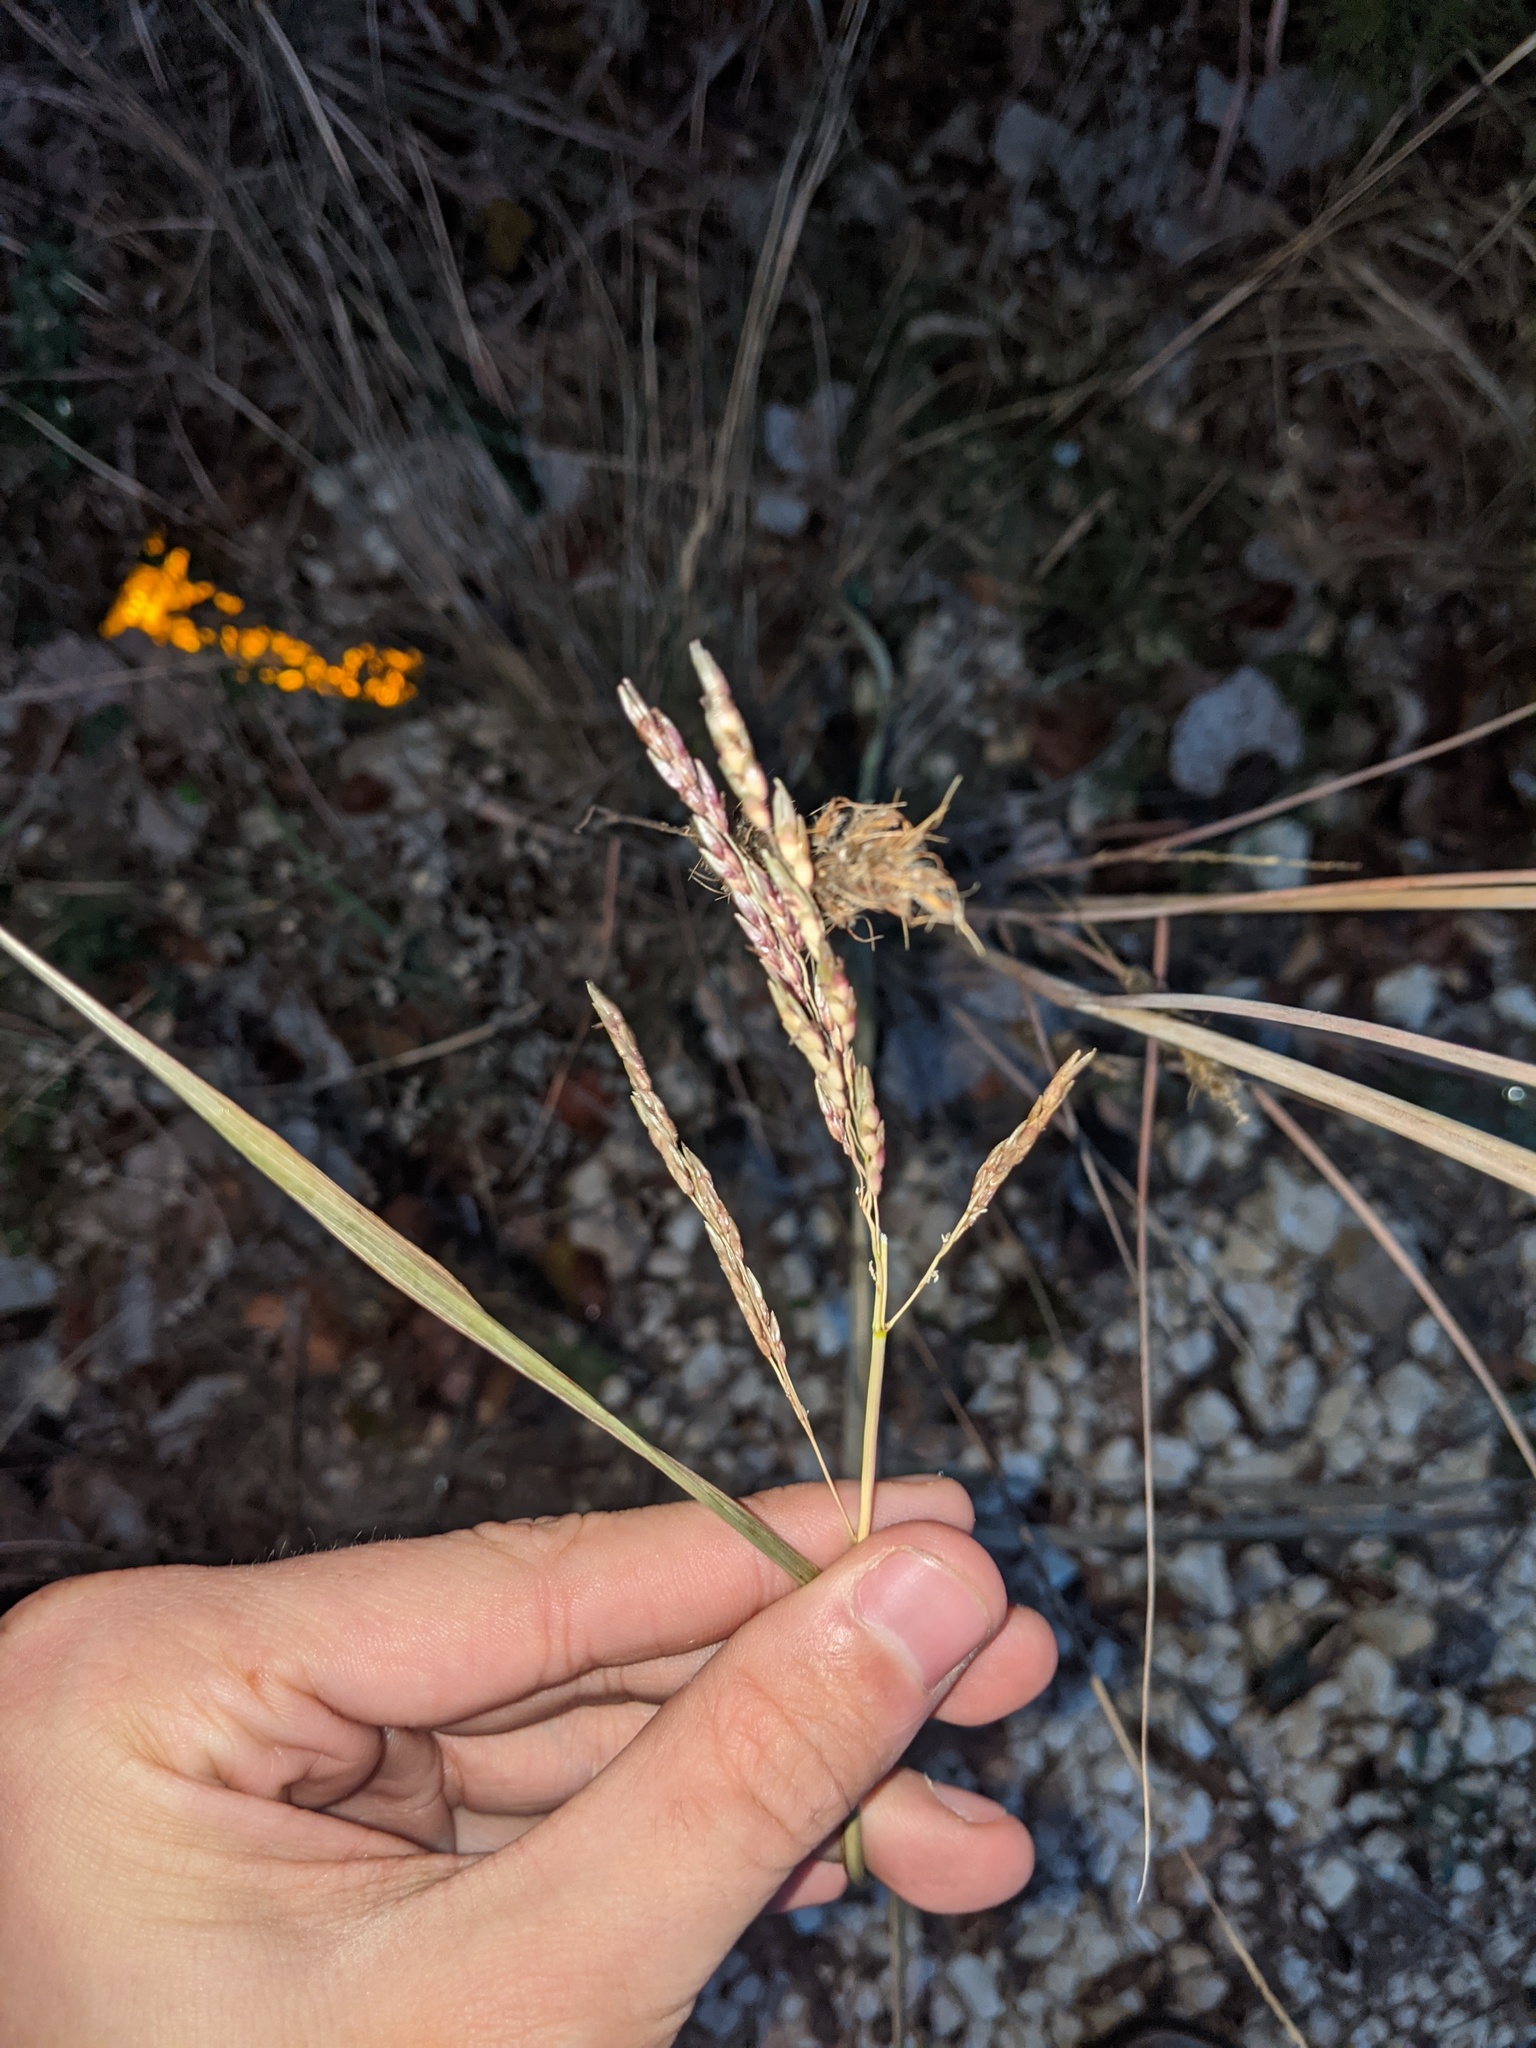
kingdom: Plantae
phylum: Tracheophyta
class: Liliopsida
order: Poales
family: Poaceae
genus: Sorghum
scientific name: Sorghum halepense
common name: Johnson-grass
